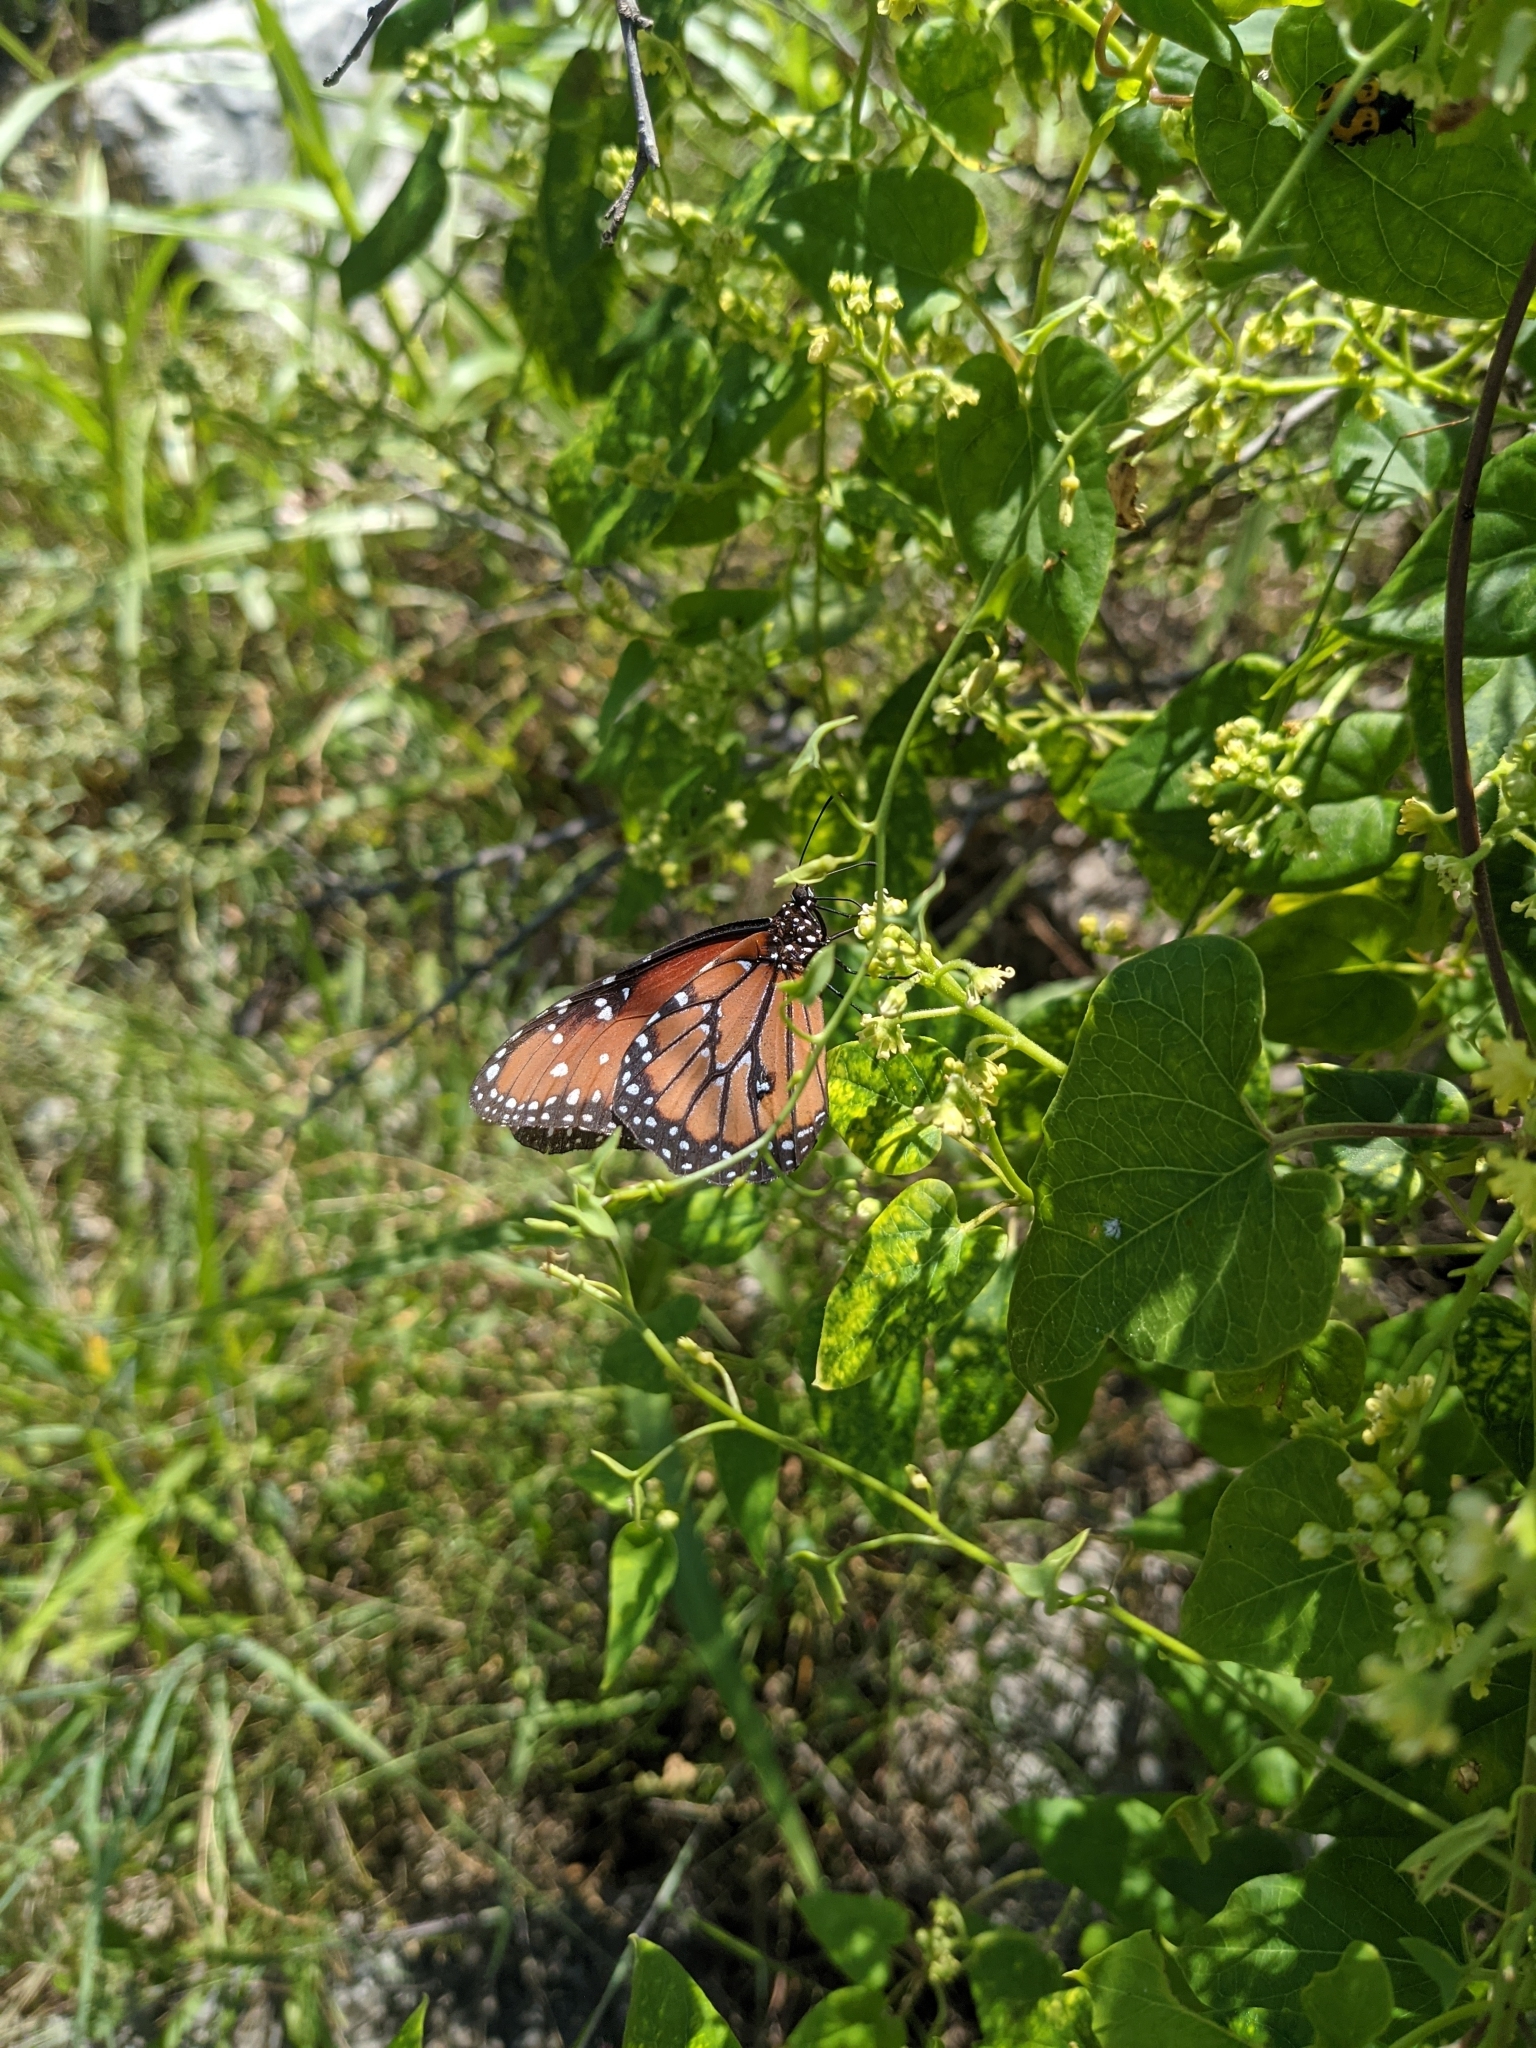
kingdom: Animalia
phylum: Arthropoda
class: Insecta
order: Lepidoptera
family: Nymphalidae
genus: Danaus
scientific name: Danaus gilippus
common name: Queen
